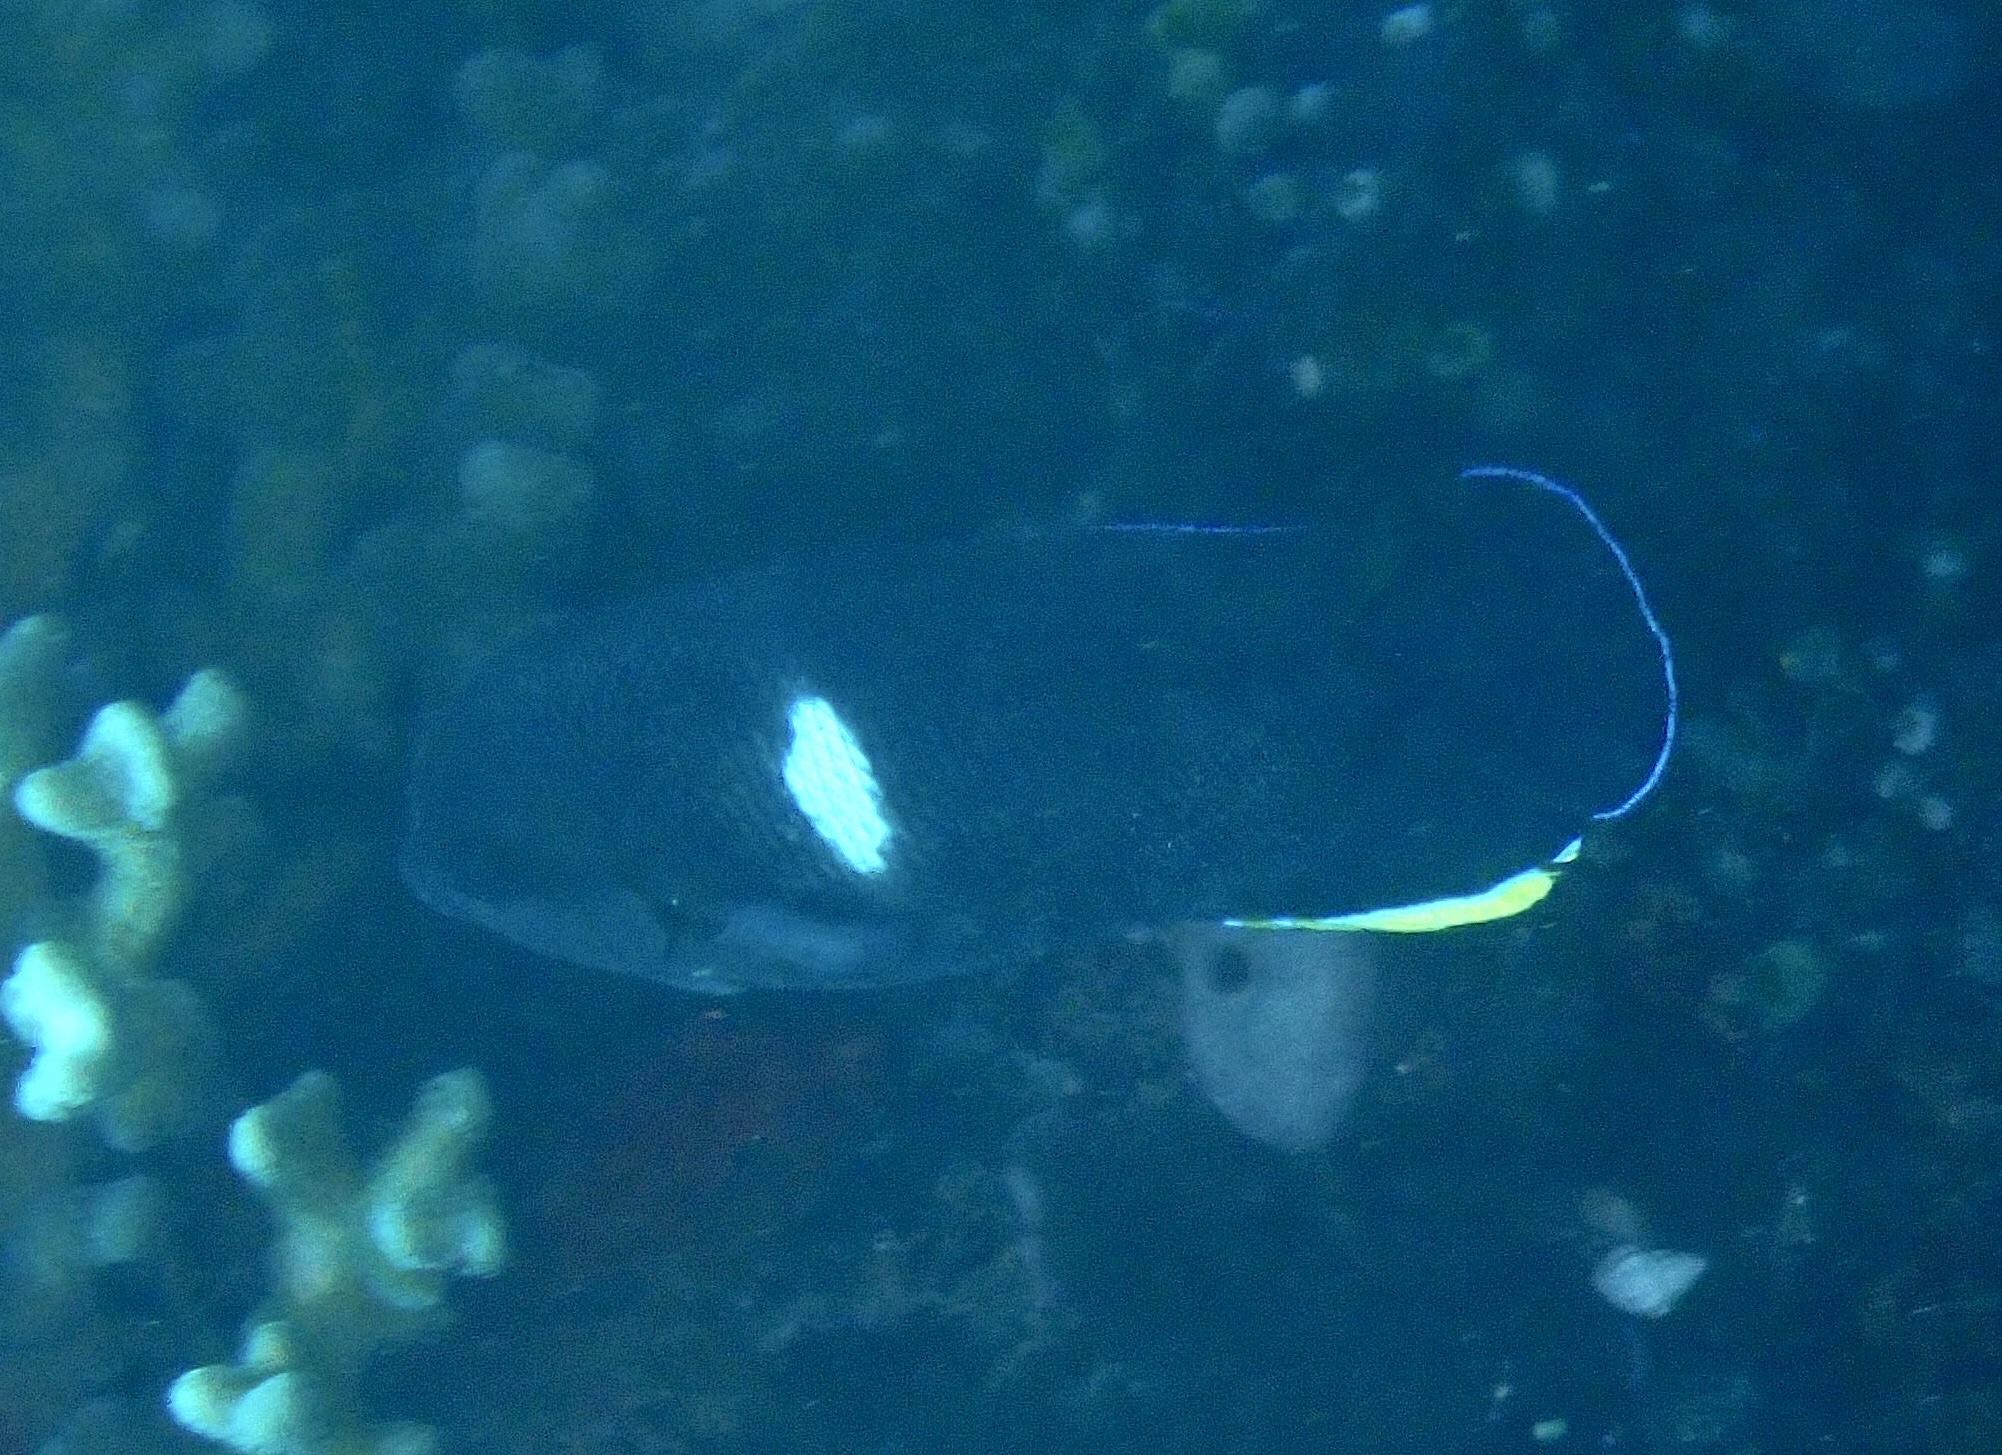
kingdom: Animalia
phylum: Chordata
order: Perciformes
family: Pomacanthidae
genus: Centropyge
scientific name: Centropyge tibicen
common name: Keyhole angelfish
